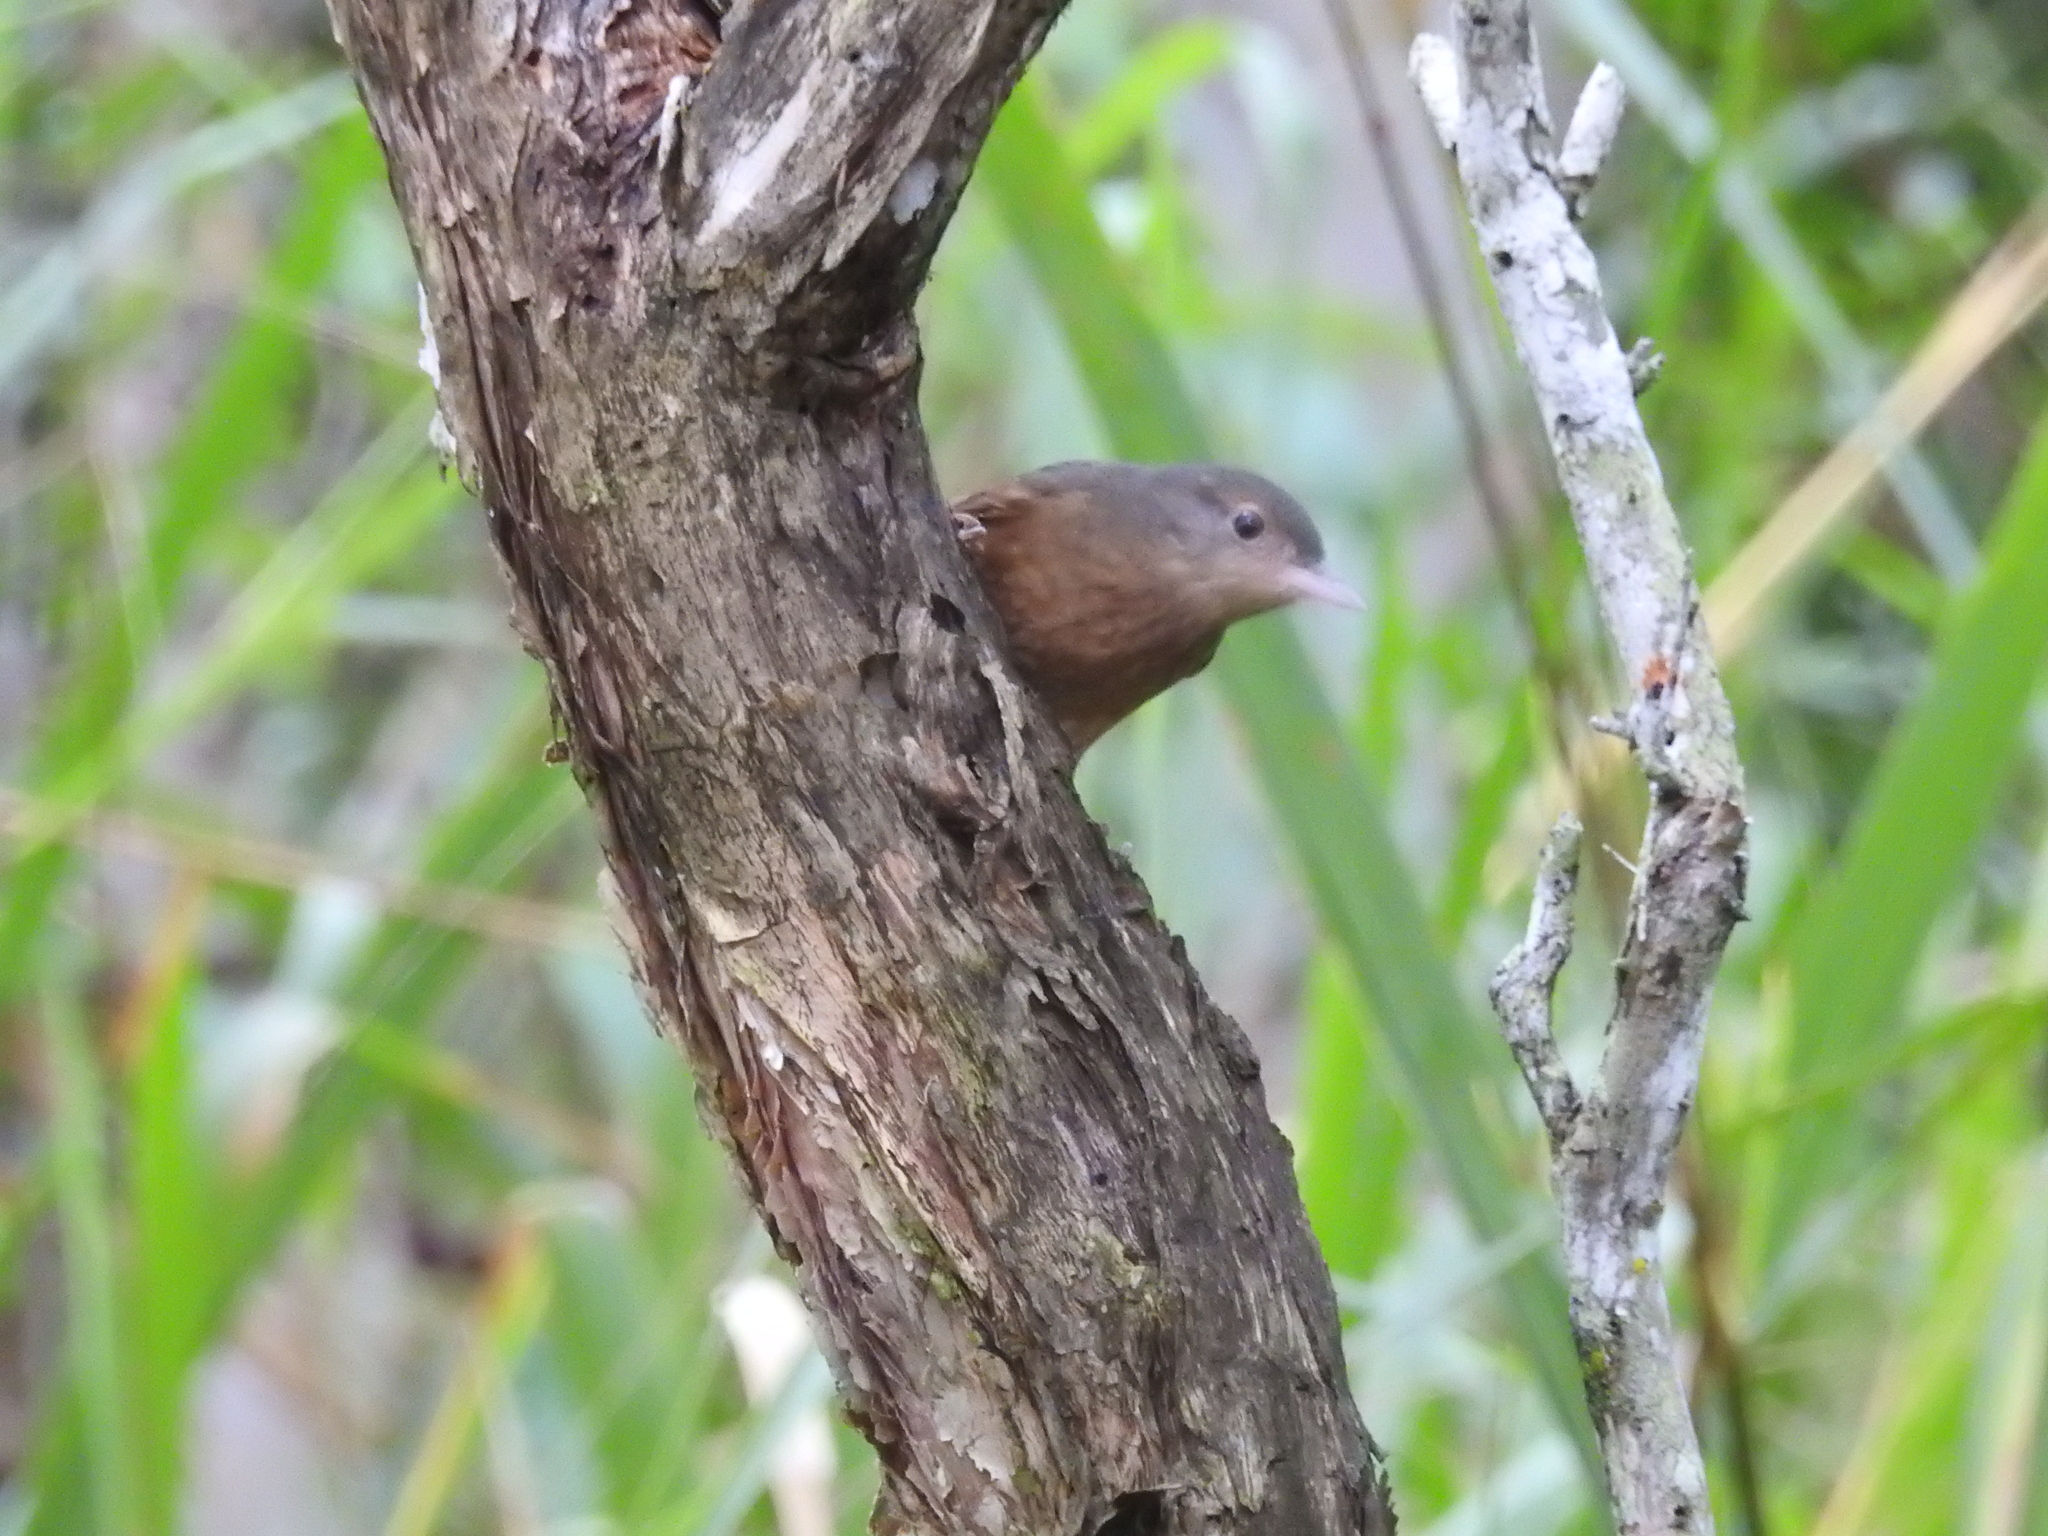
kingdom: Animalia
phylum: Chordata
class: Aves
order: Passeriformes
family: Pachycephalidae
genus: Colluricincla
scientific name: Colluricincla rufogaster
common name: Rufous shrikethrush
